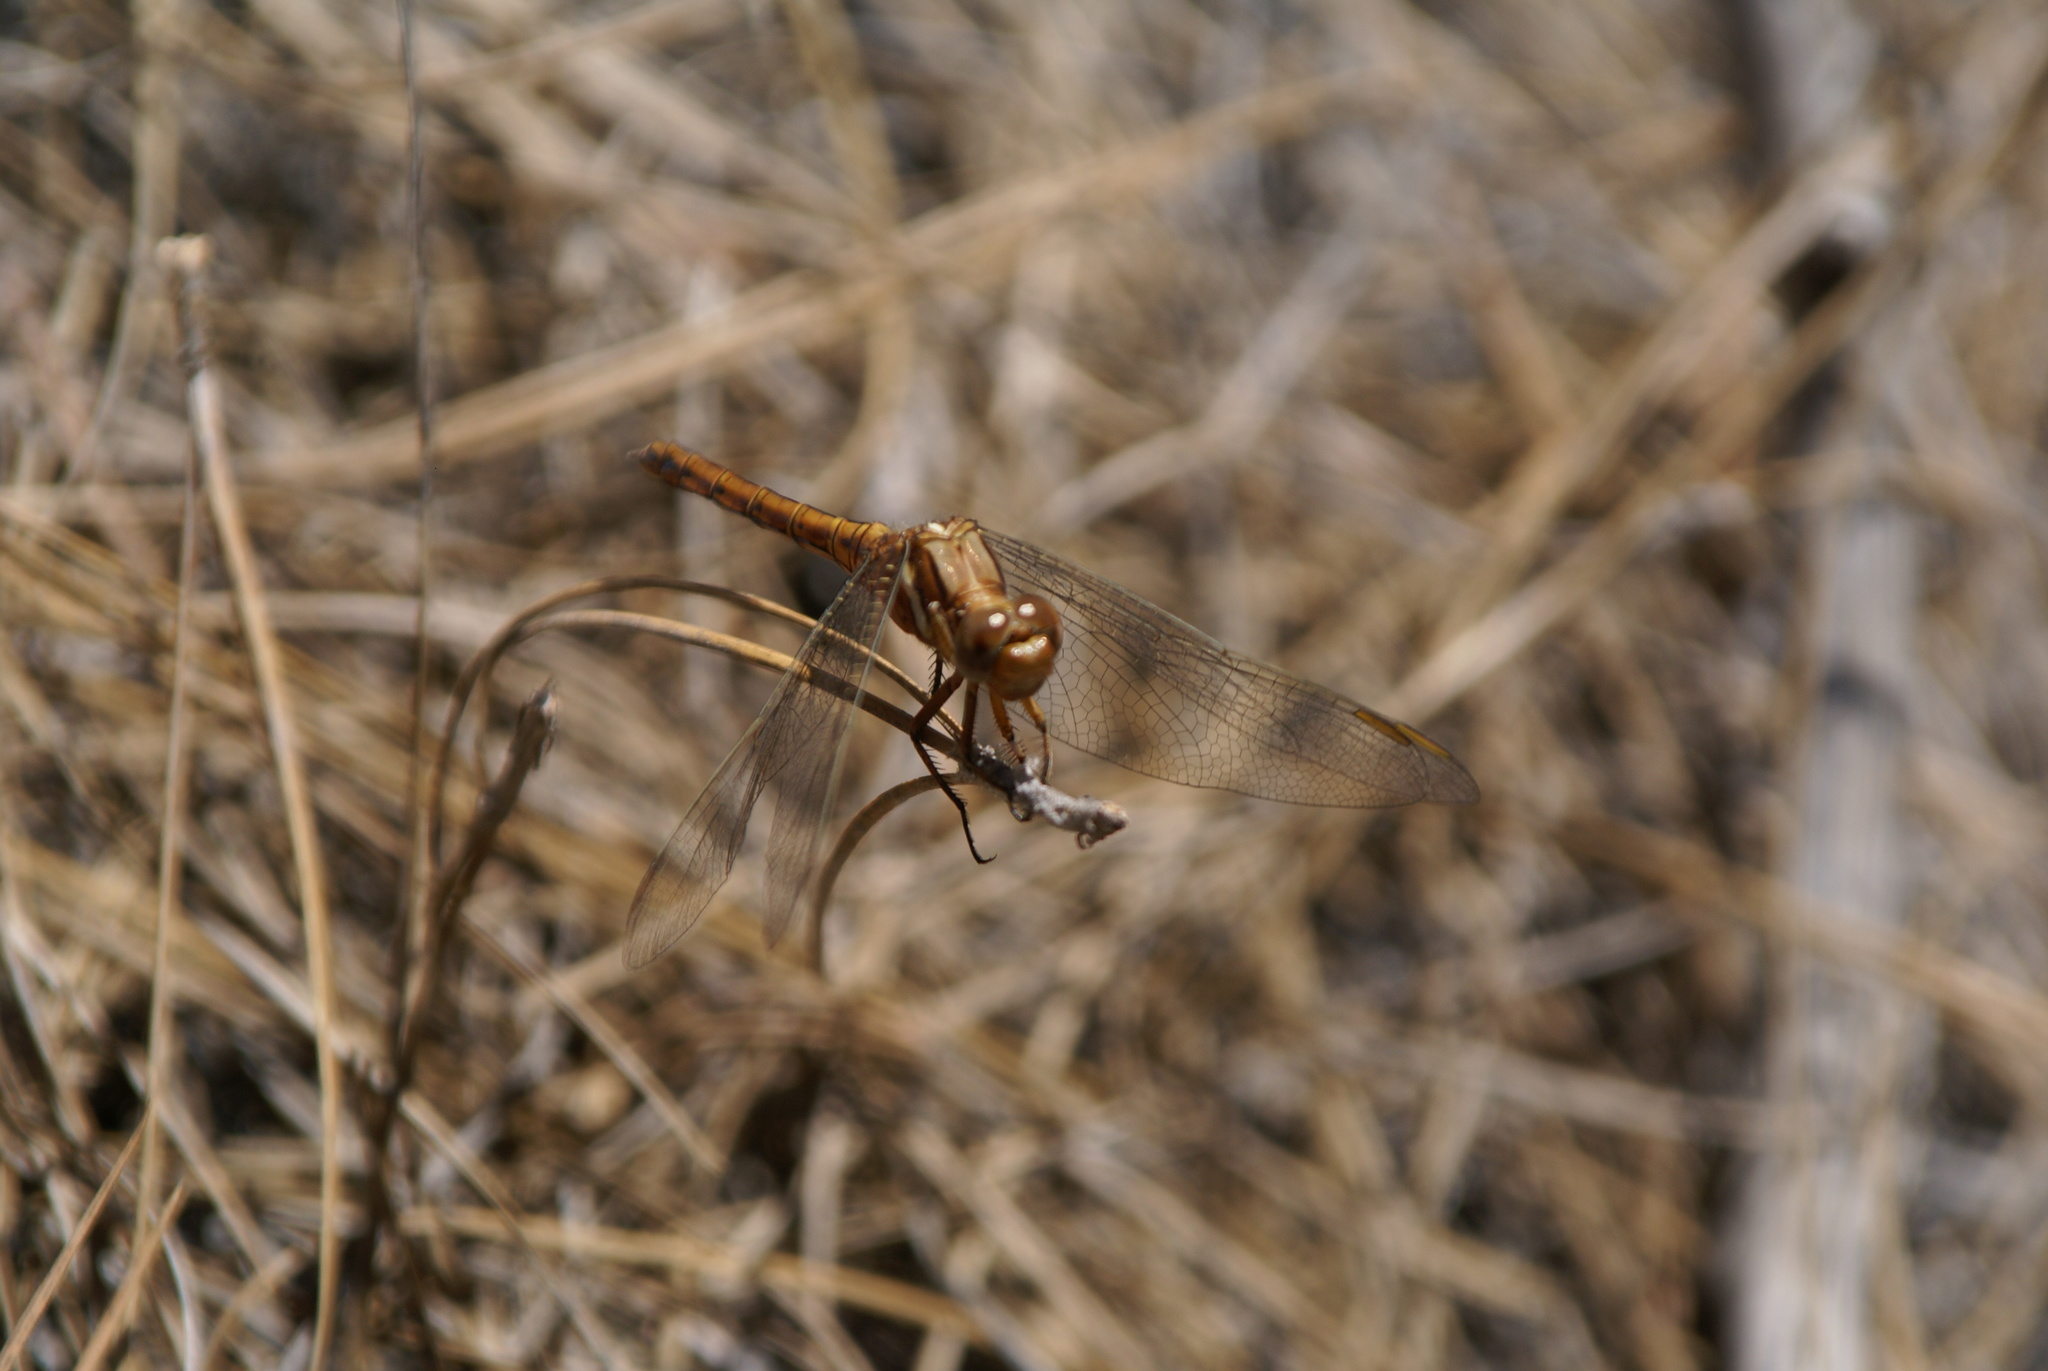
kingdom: Animalia
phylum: Arthropoda
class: Insecta
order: Odonata
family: Libellulidae
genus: Orthetrum
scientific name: Orthetrum chrysostigma
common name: Epaulet skimmer
